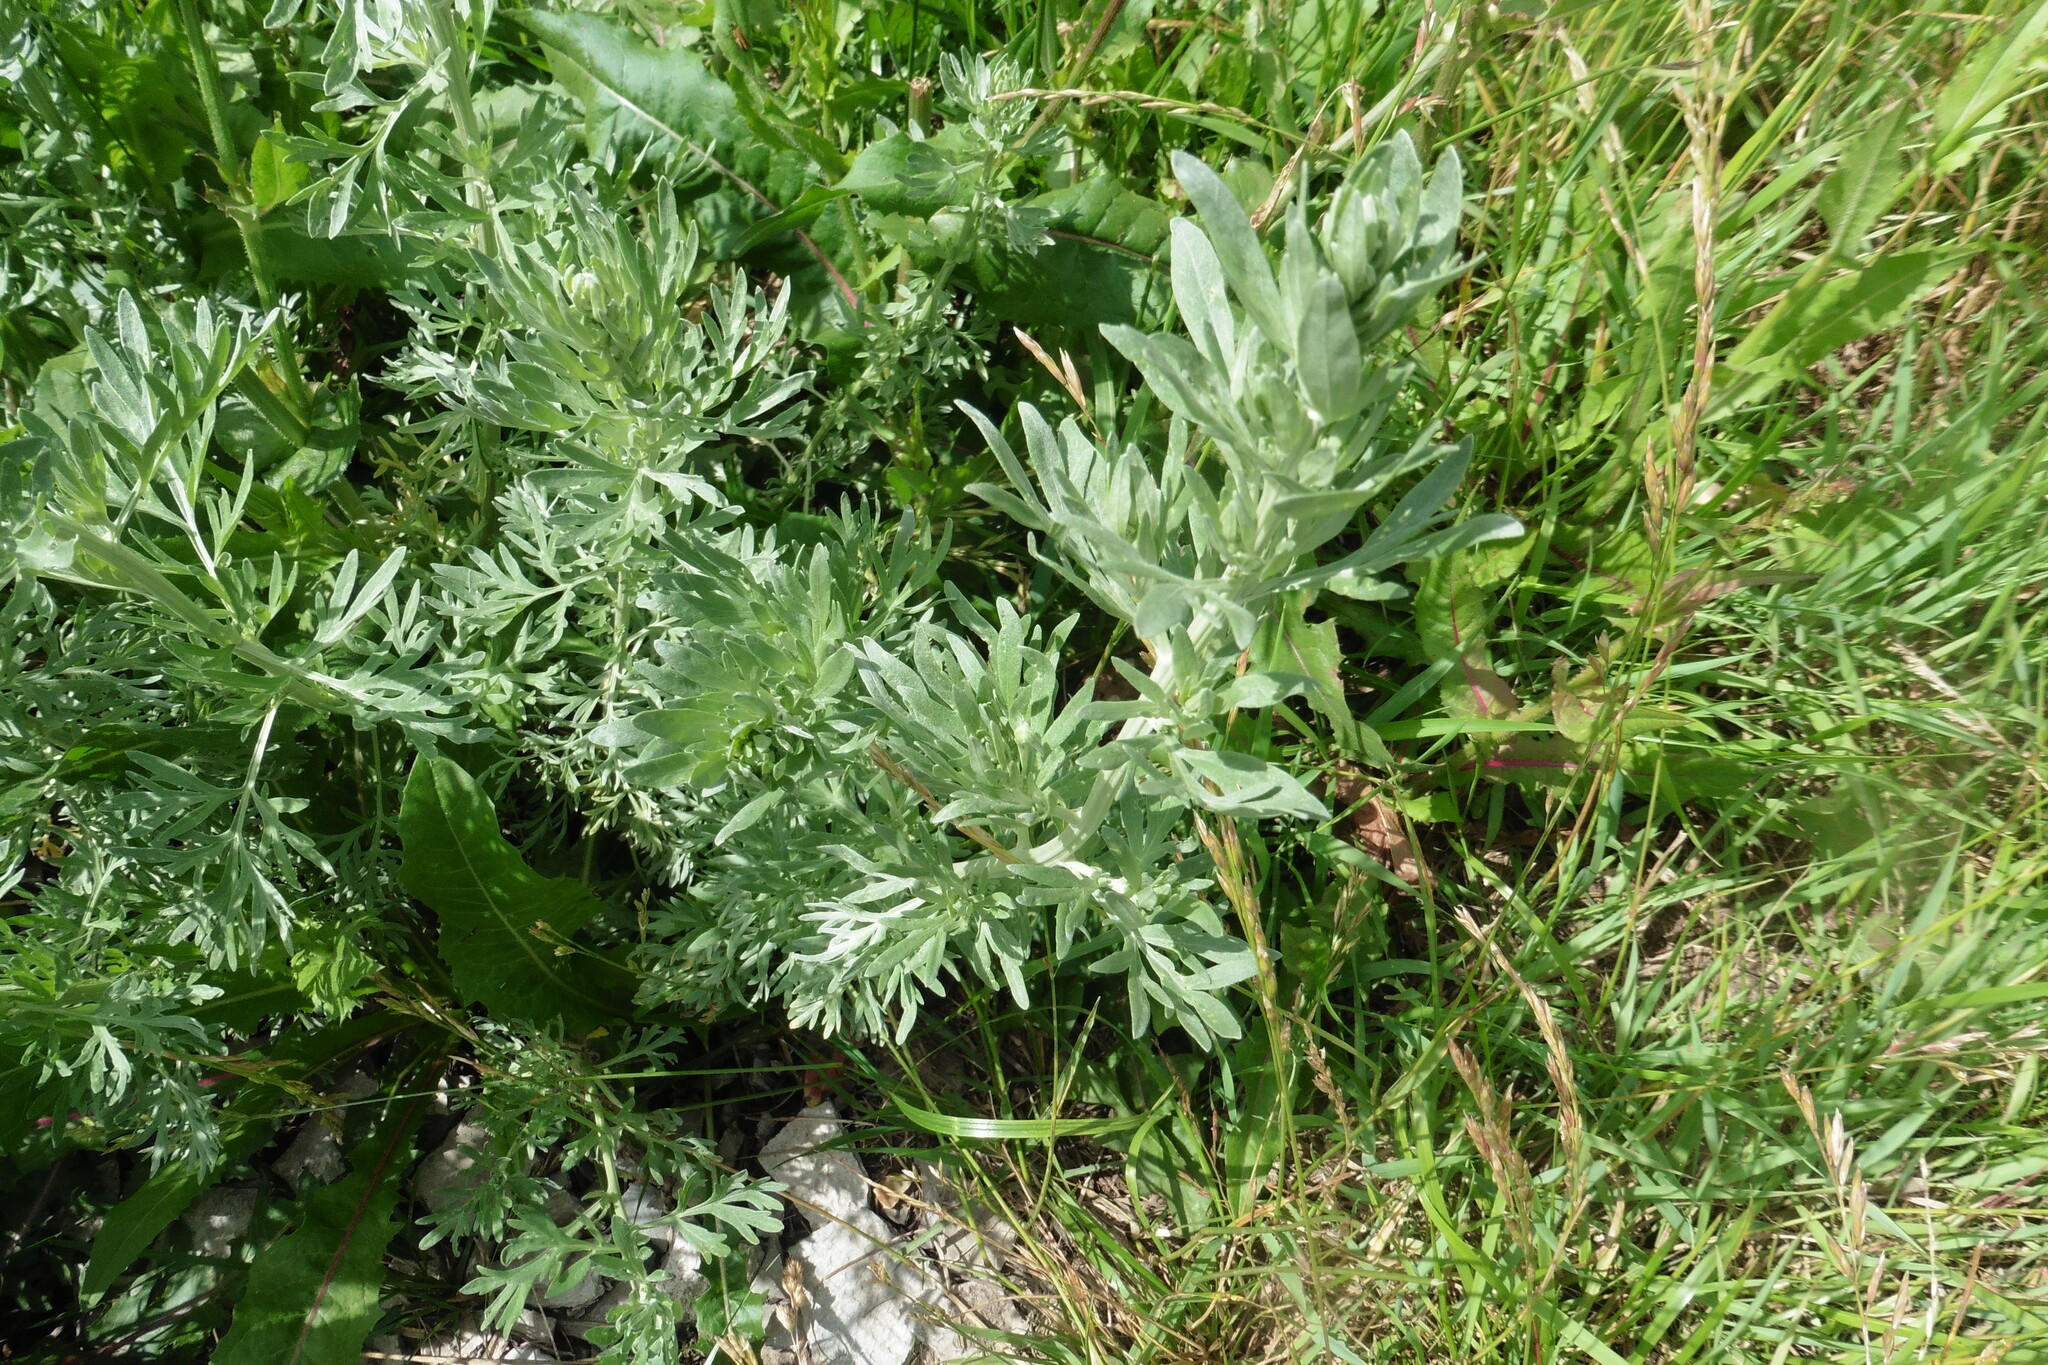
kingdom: Plantae
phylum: Tracheophyta
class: Magnoliopsida
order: Asterales
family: Asteraceae
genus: Artemisia
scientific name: Artemisia absinthium
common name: Wormwood
